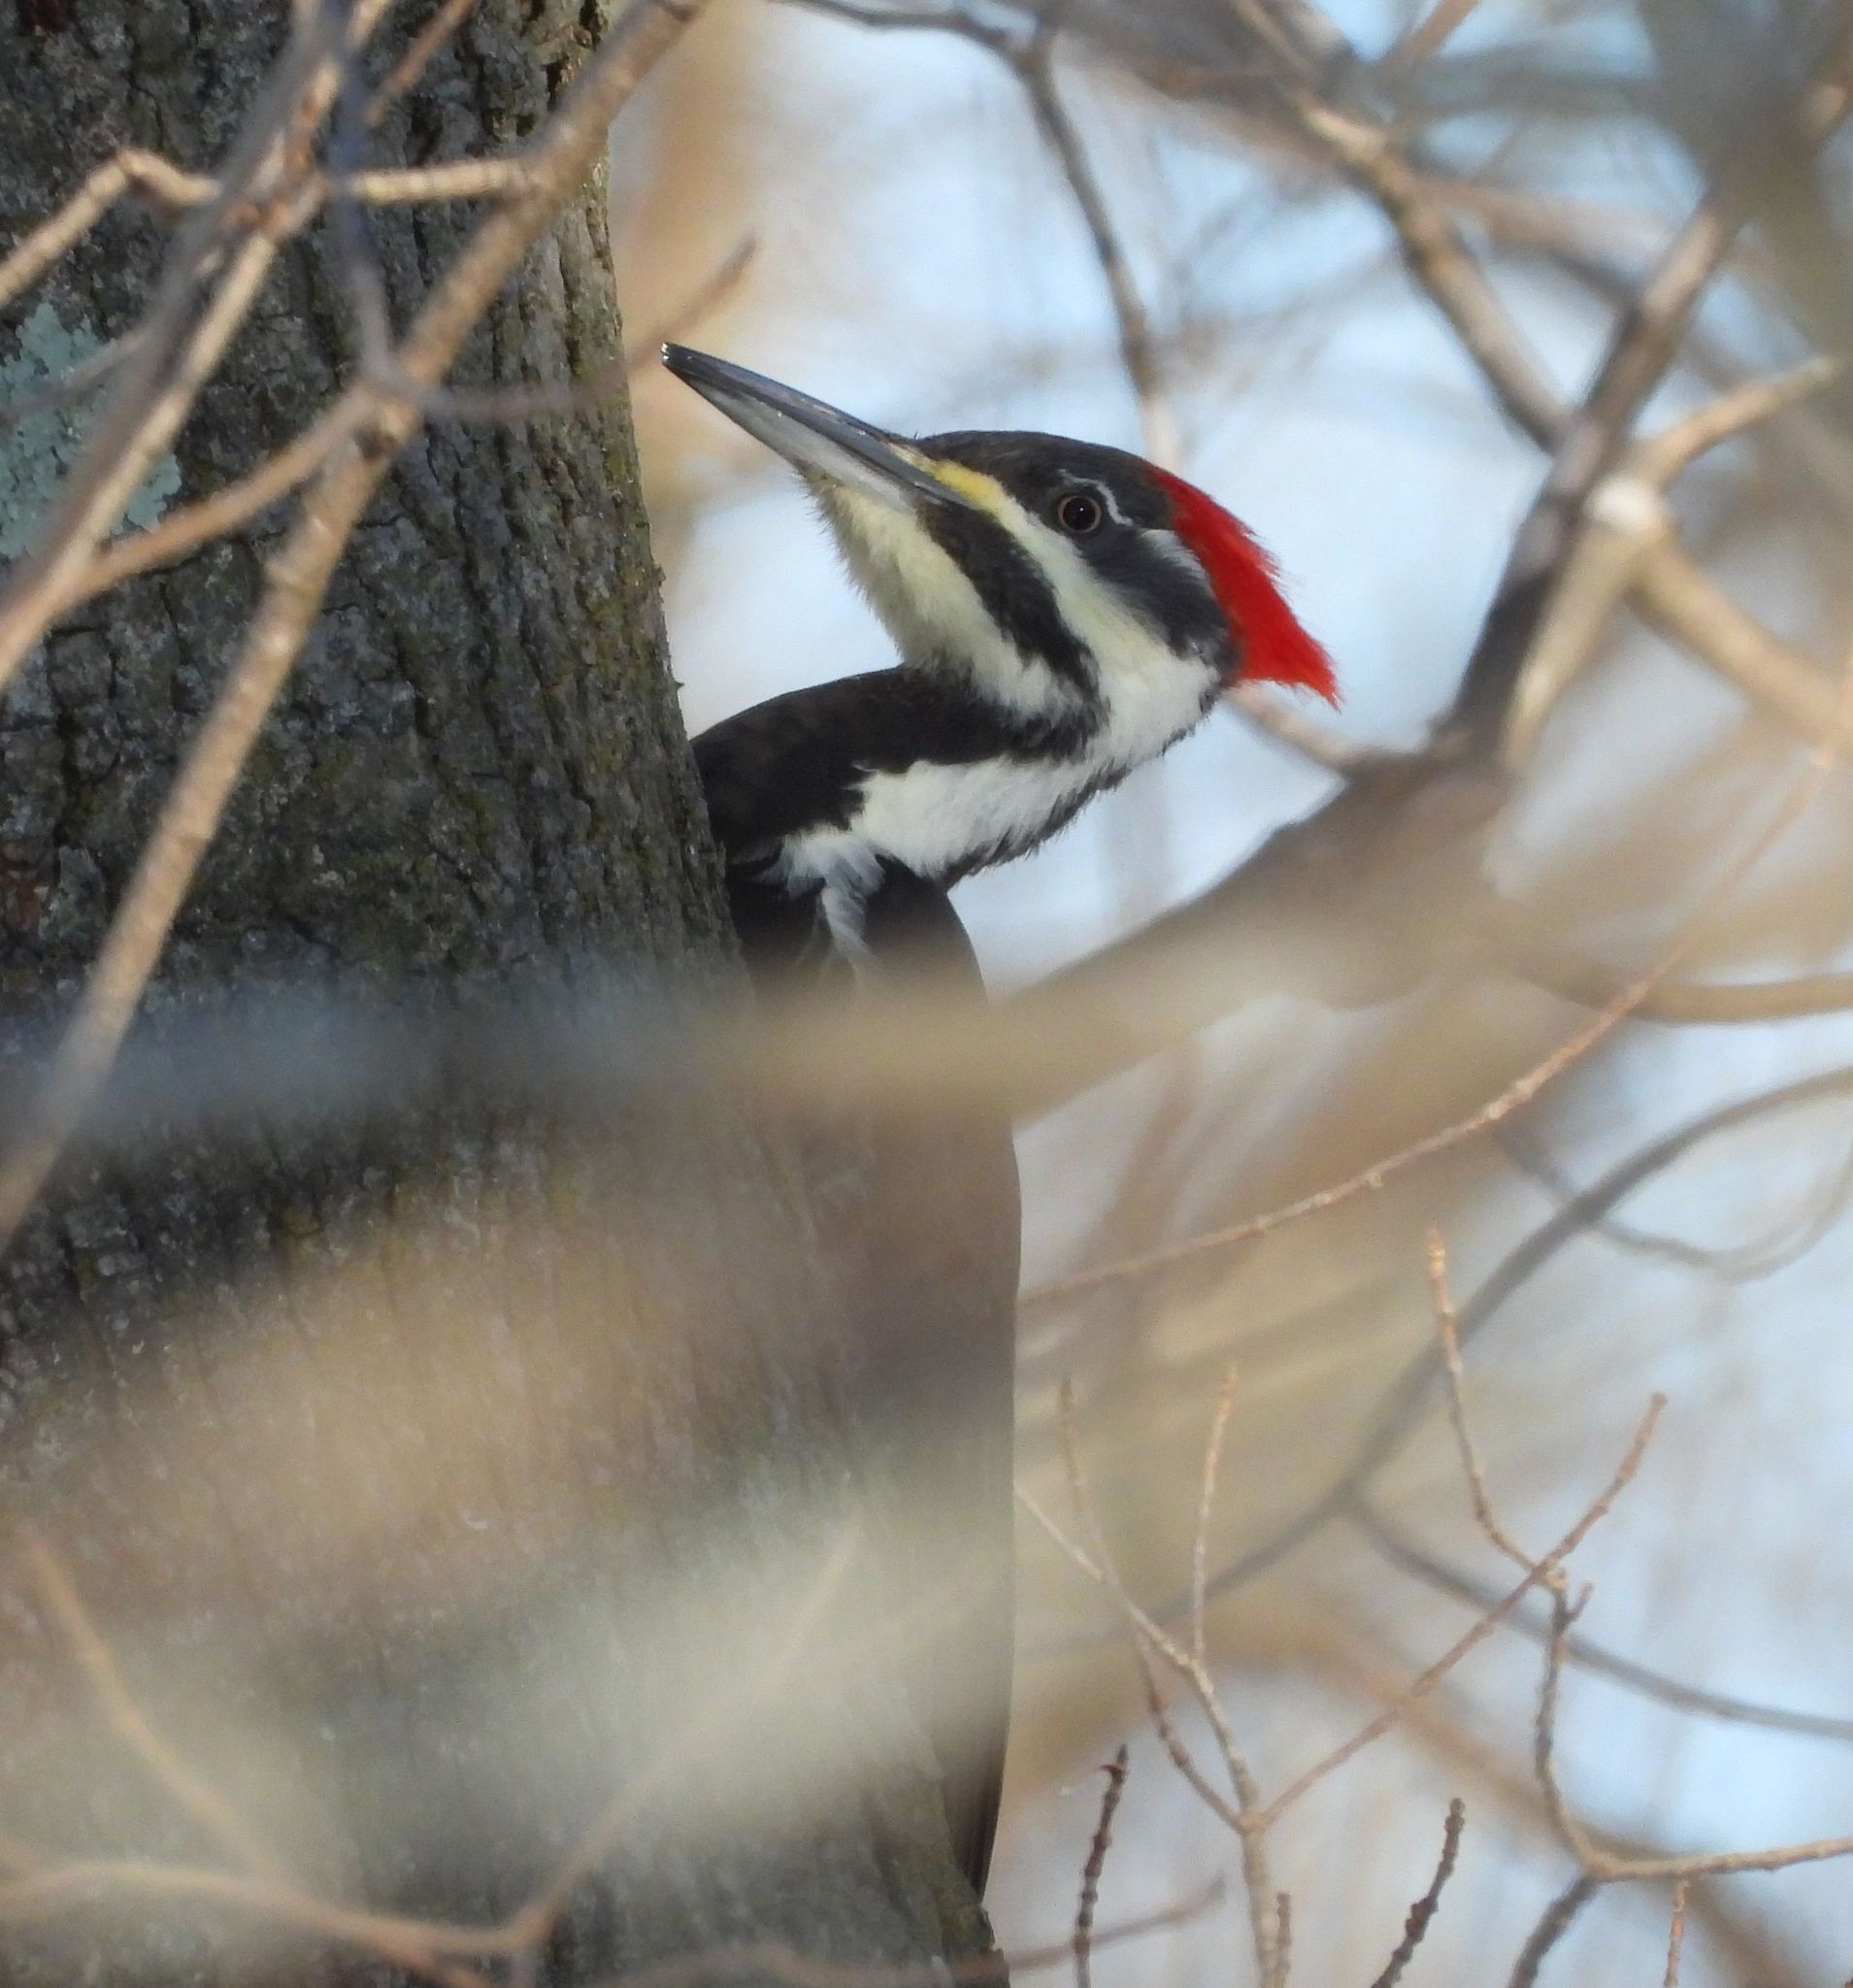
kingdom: Animalia
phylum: Chordata
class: Aves
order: Piciformes
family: Picidae
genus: Dryocopus
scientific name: Dryocopus pileatus
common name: Pileated woodpecker
